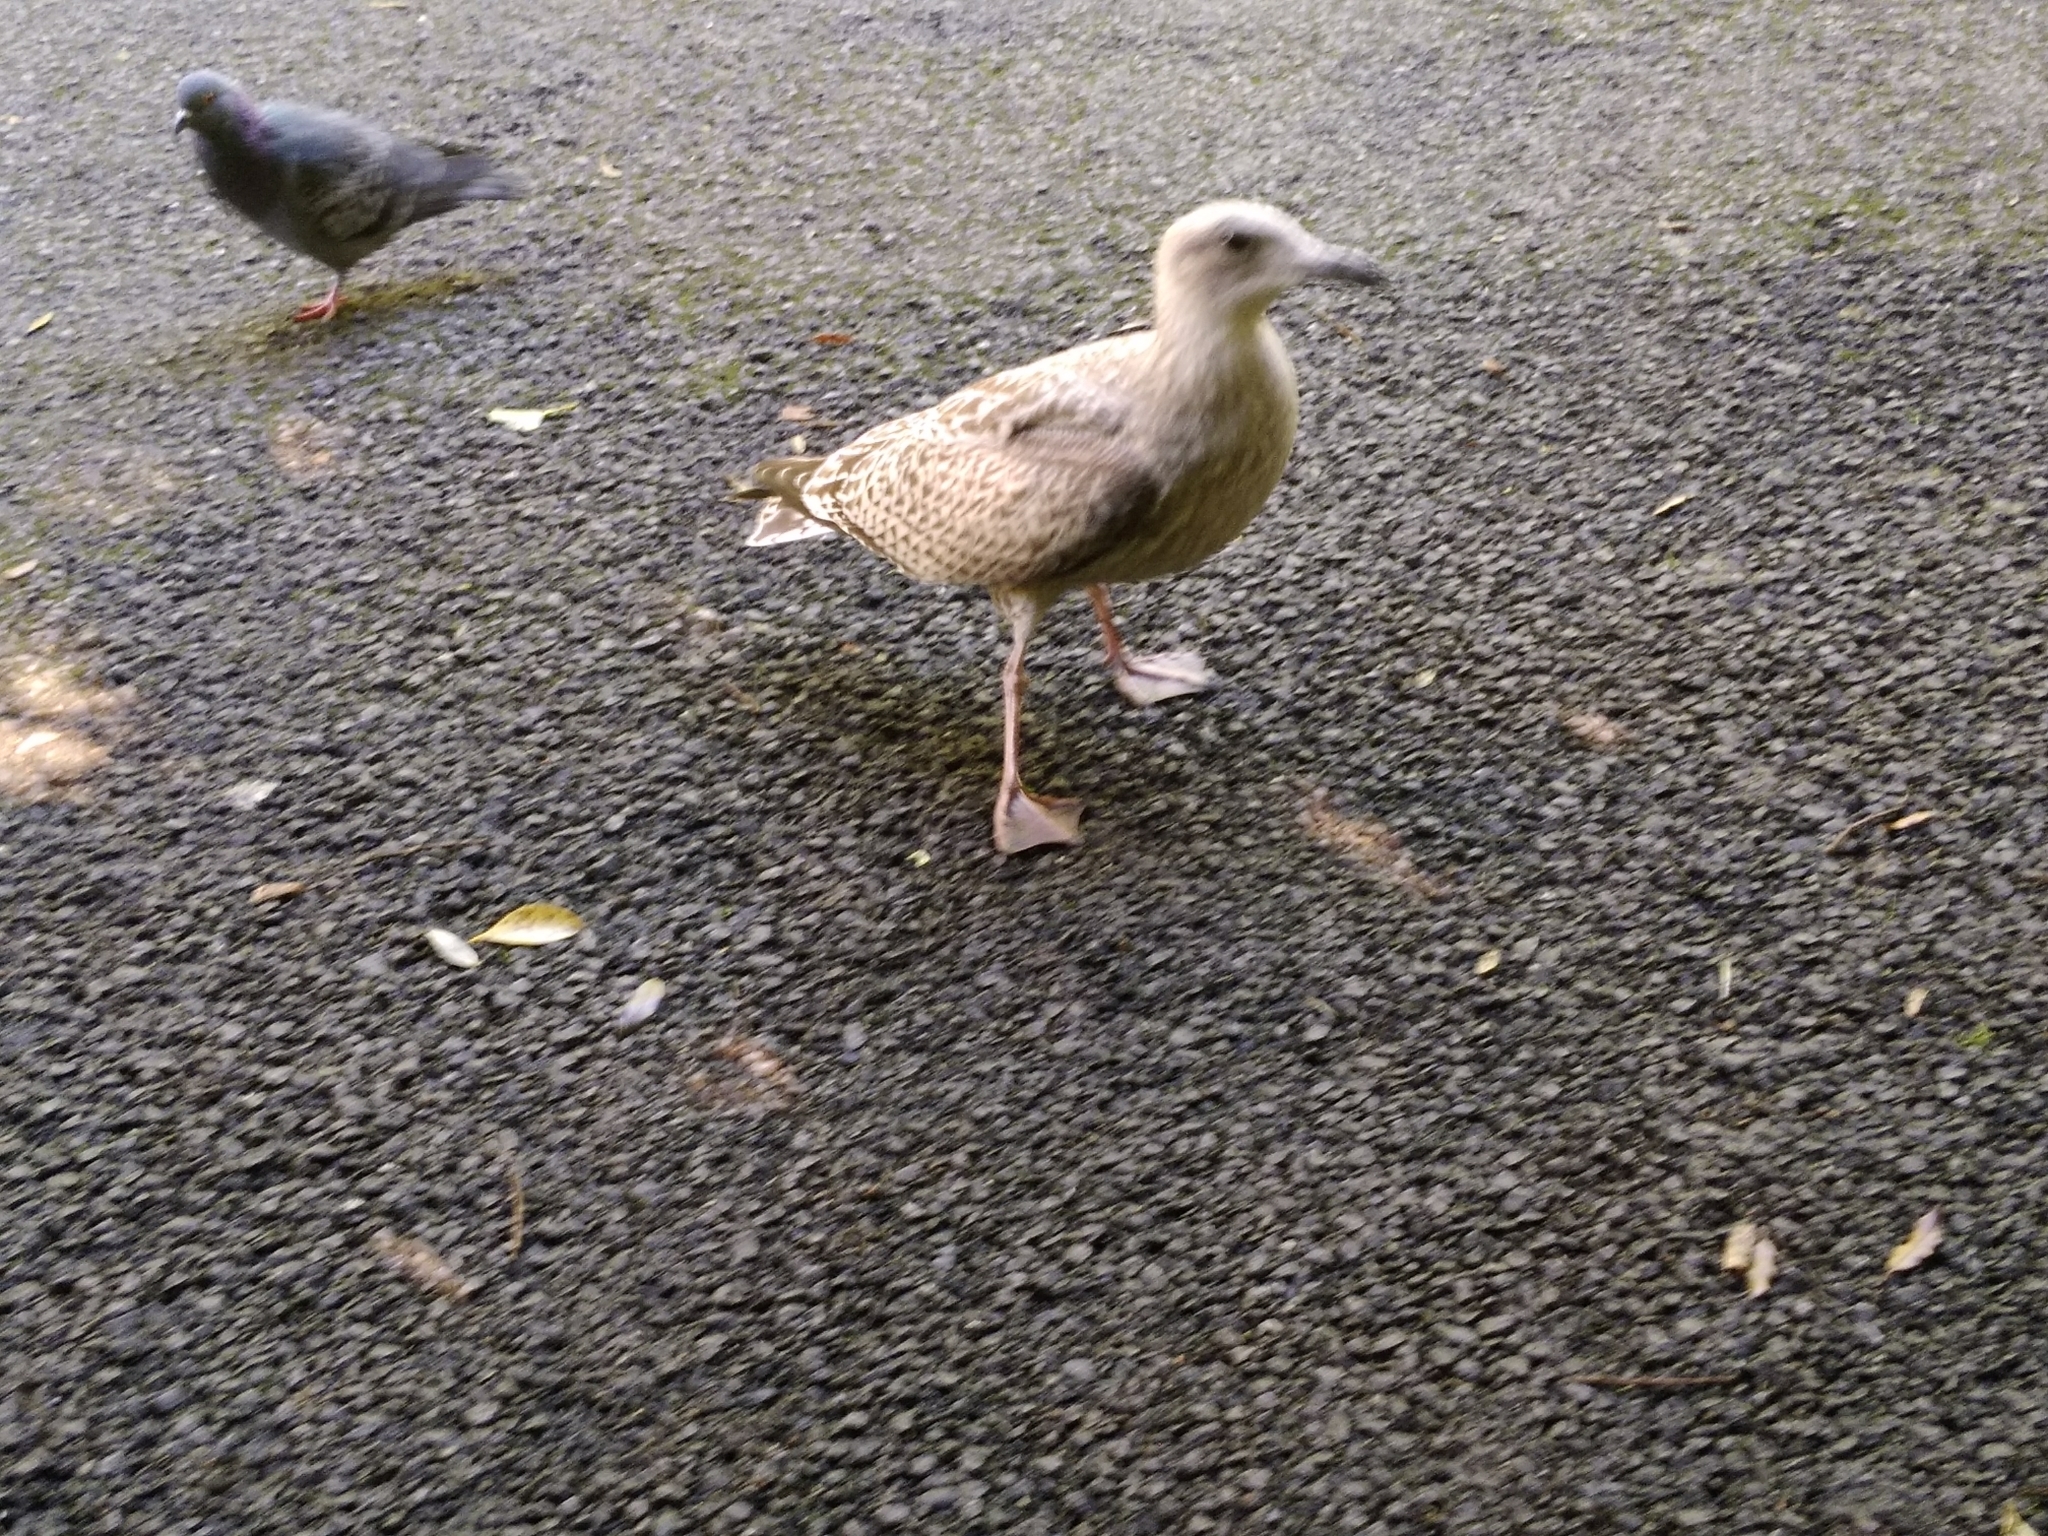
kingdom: Animalia
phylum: Chordata
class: Aves
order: Charadriiformes
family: Laridae
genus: Larus
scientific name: Larus argentatus
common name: Herring gull
